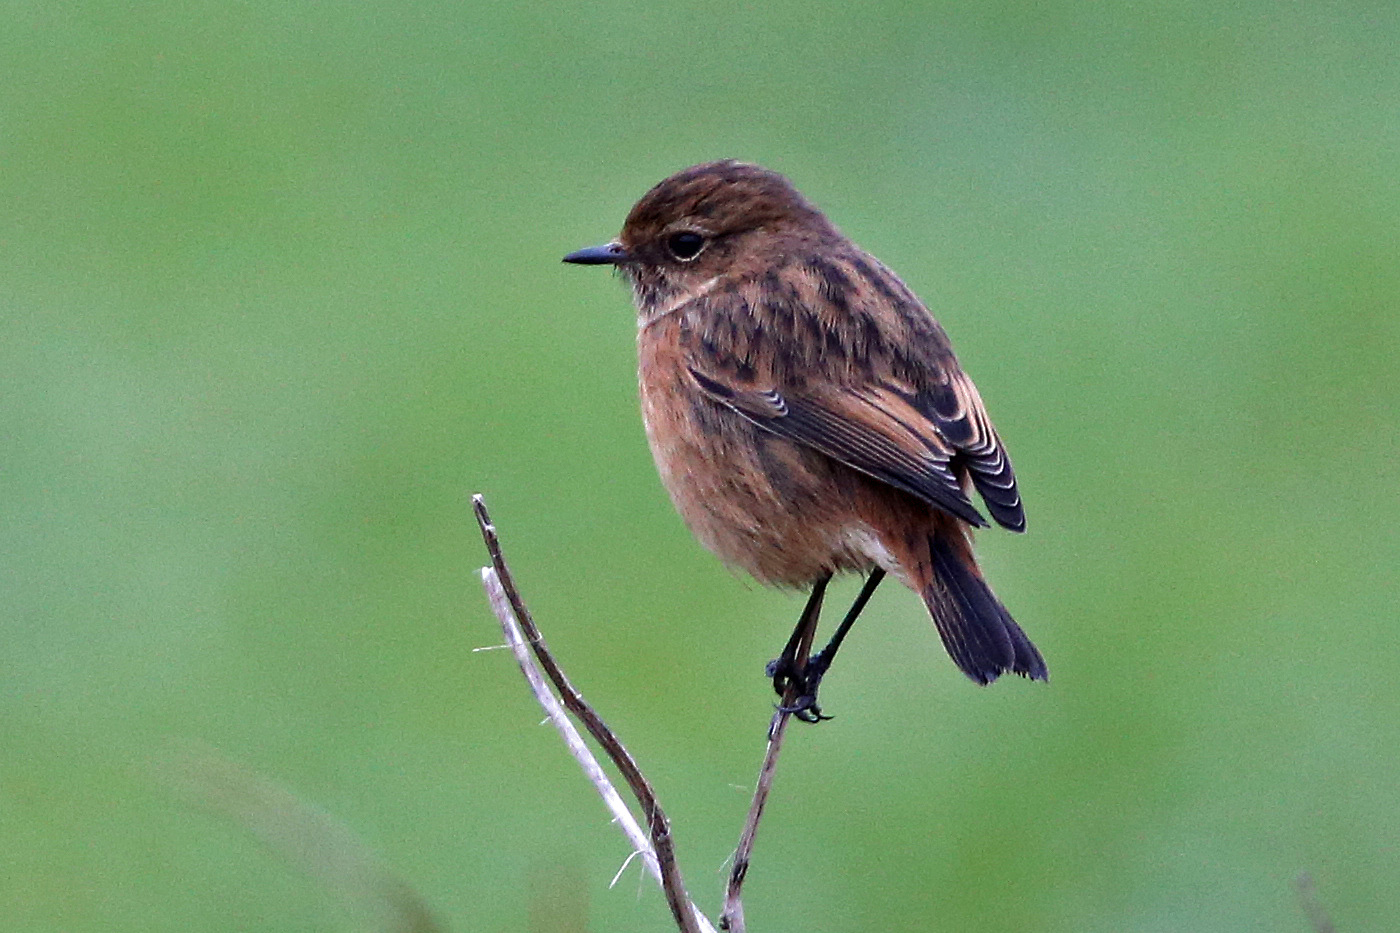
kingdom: Animalia
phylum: Chordata
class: Aves
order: Passeriformes
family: Muscicapidae
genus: Saxicola
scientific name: Saxicola rubicola
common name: European stonechat
